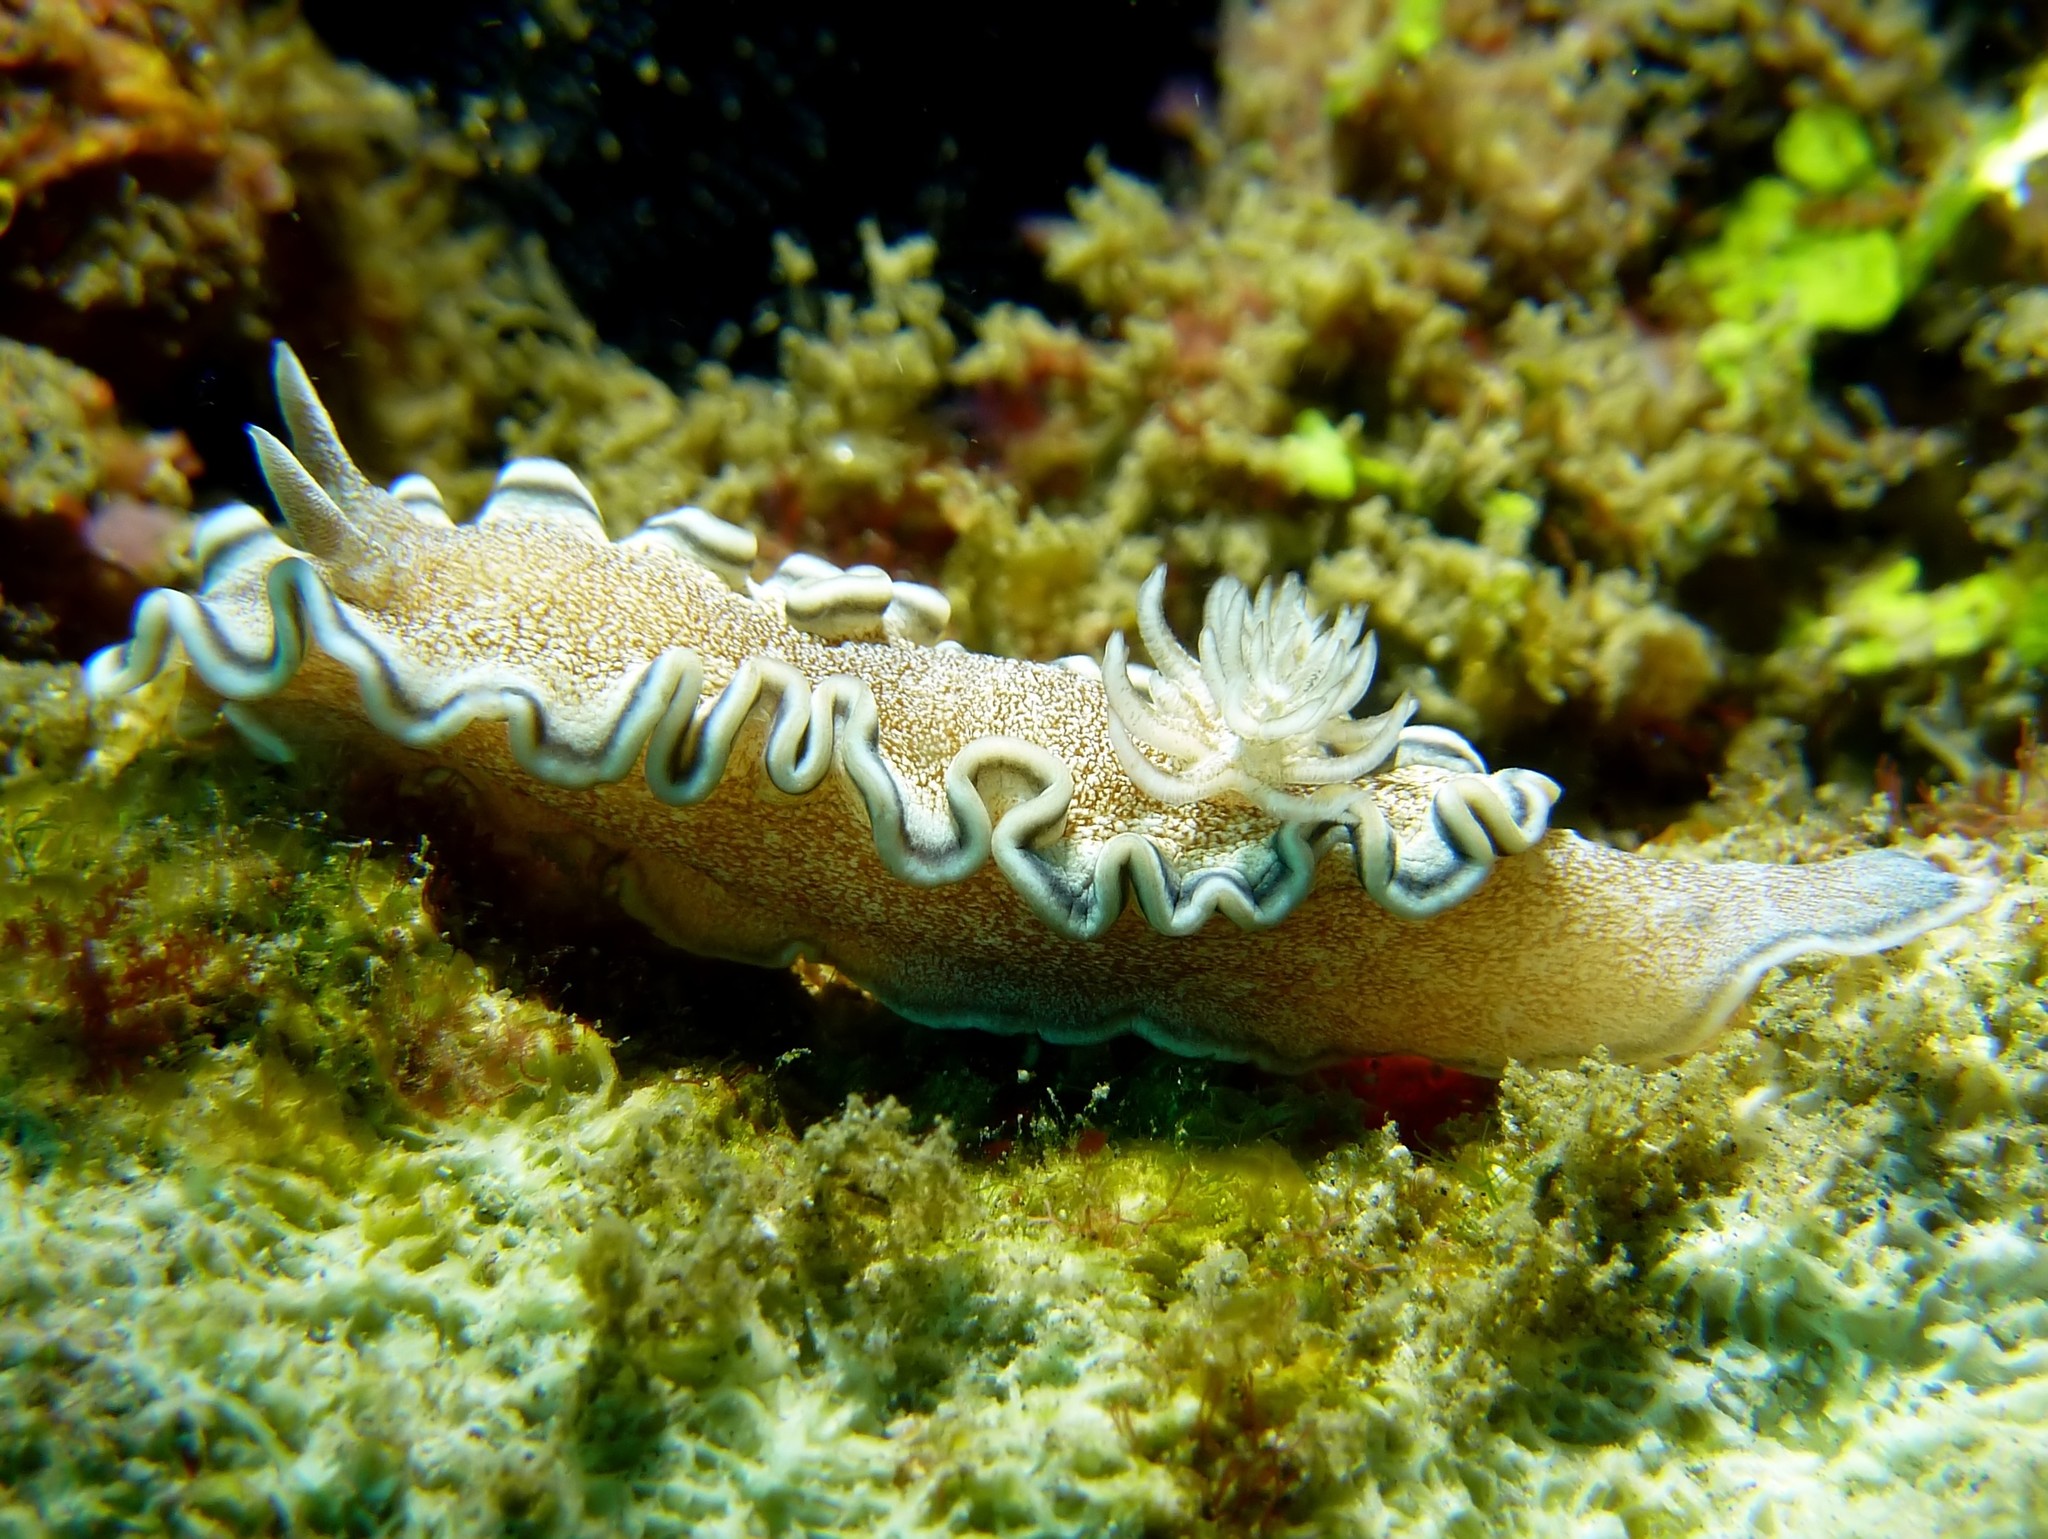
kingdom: Animalia
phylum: Mollusca
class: Gastropoda
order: Nudibranchia
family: Chromodorididae
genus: Glossodoris
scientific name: Glossodoris hikuerensis
